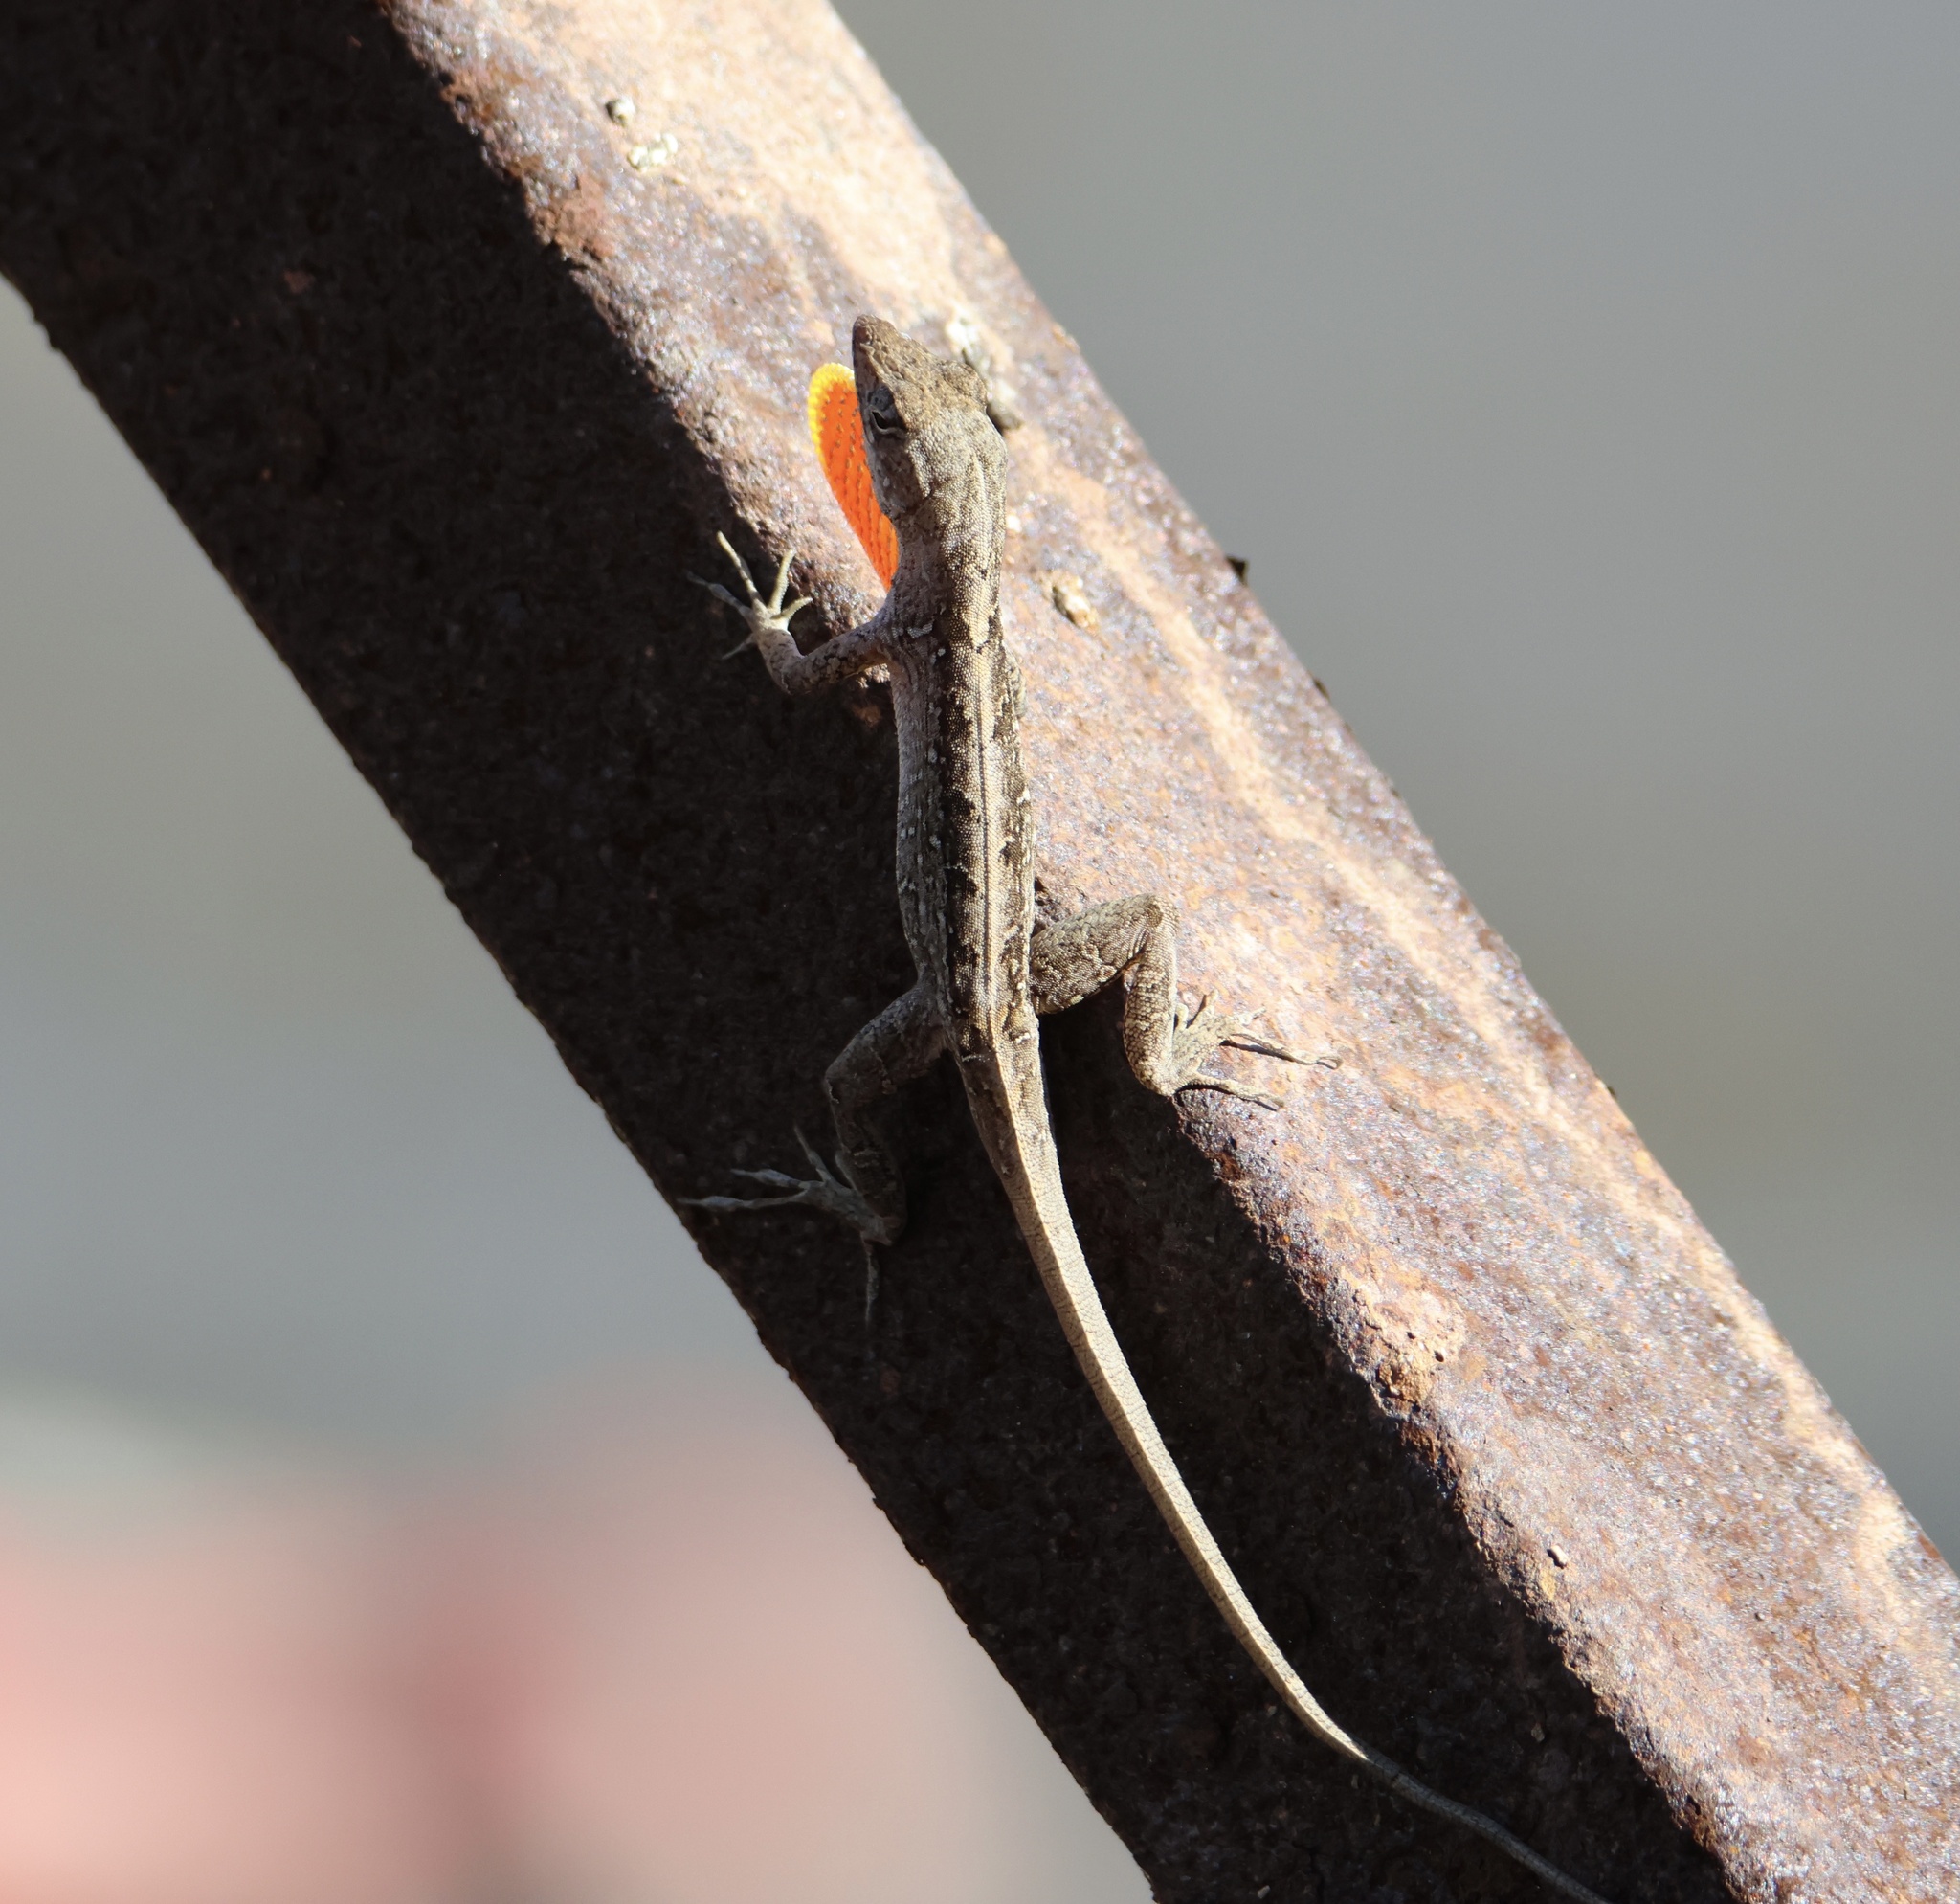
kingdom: Animalia
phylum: Chordata
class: Squamata
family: Dactyloidae
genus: Anolis
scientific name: Anolis sagrei
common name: Brown anole
